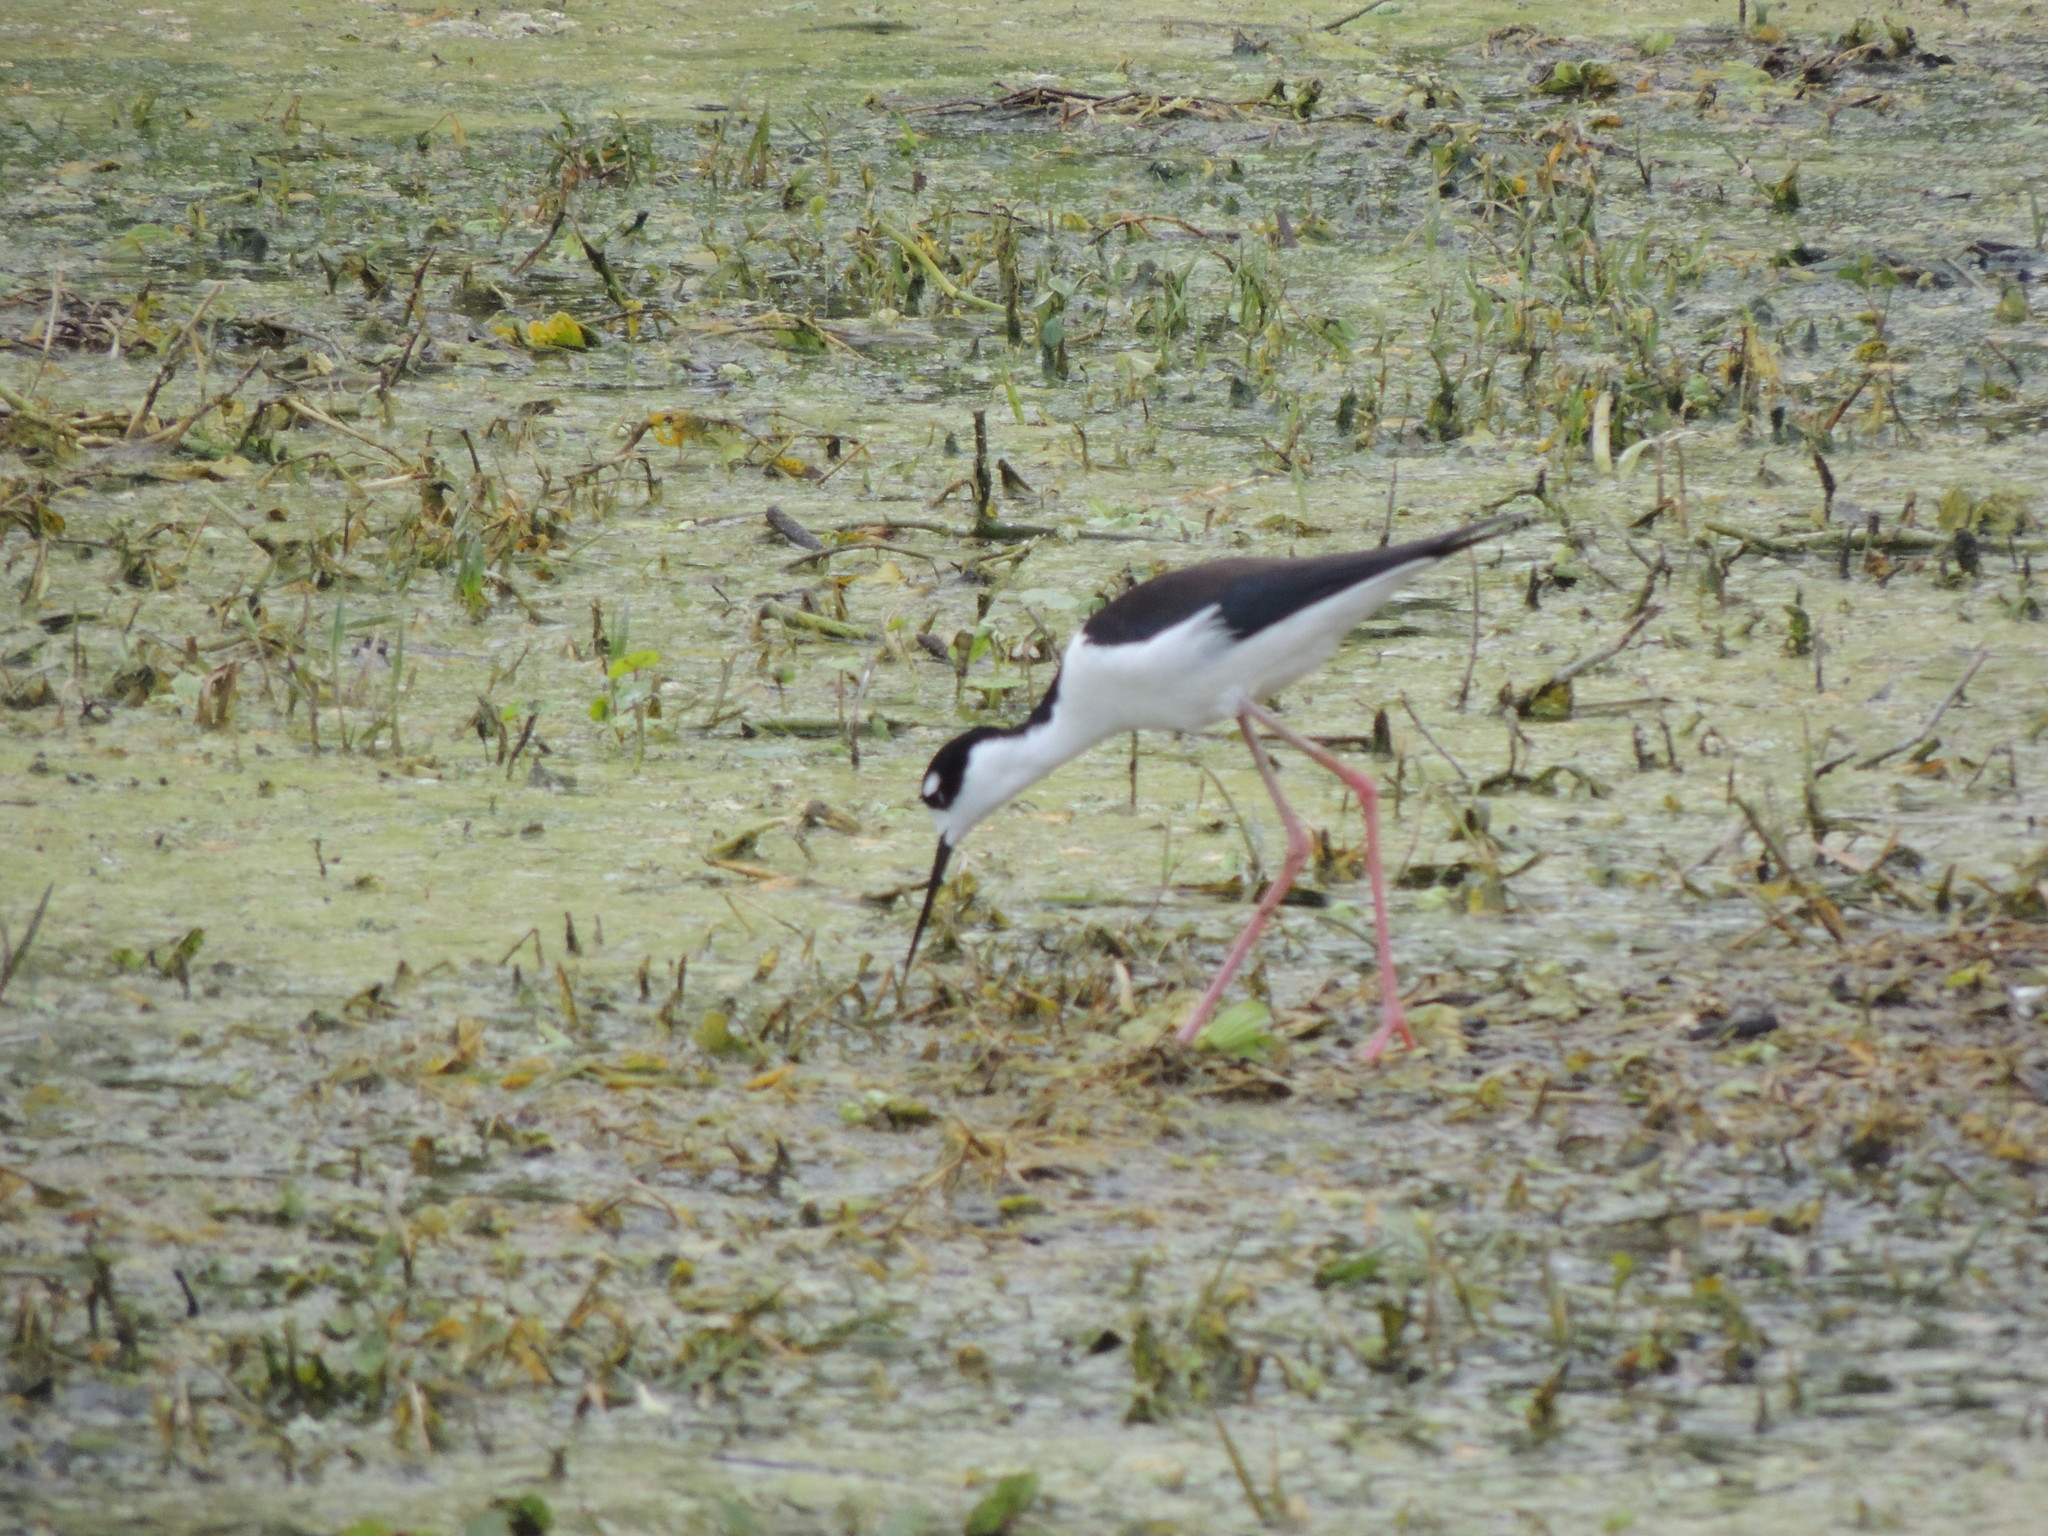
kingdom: Animalia
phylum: Chordata
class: Aves
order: Charadriiformes
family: Recurvirostridae
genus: Himantopus
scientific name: Himantopus mexicanus
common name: Black-necked stilt
